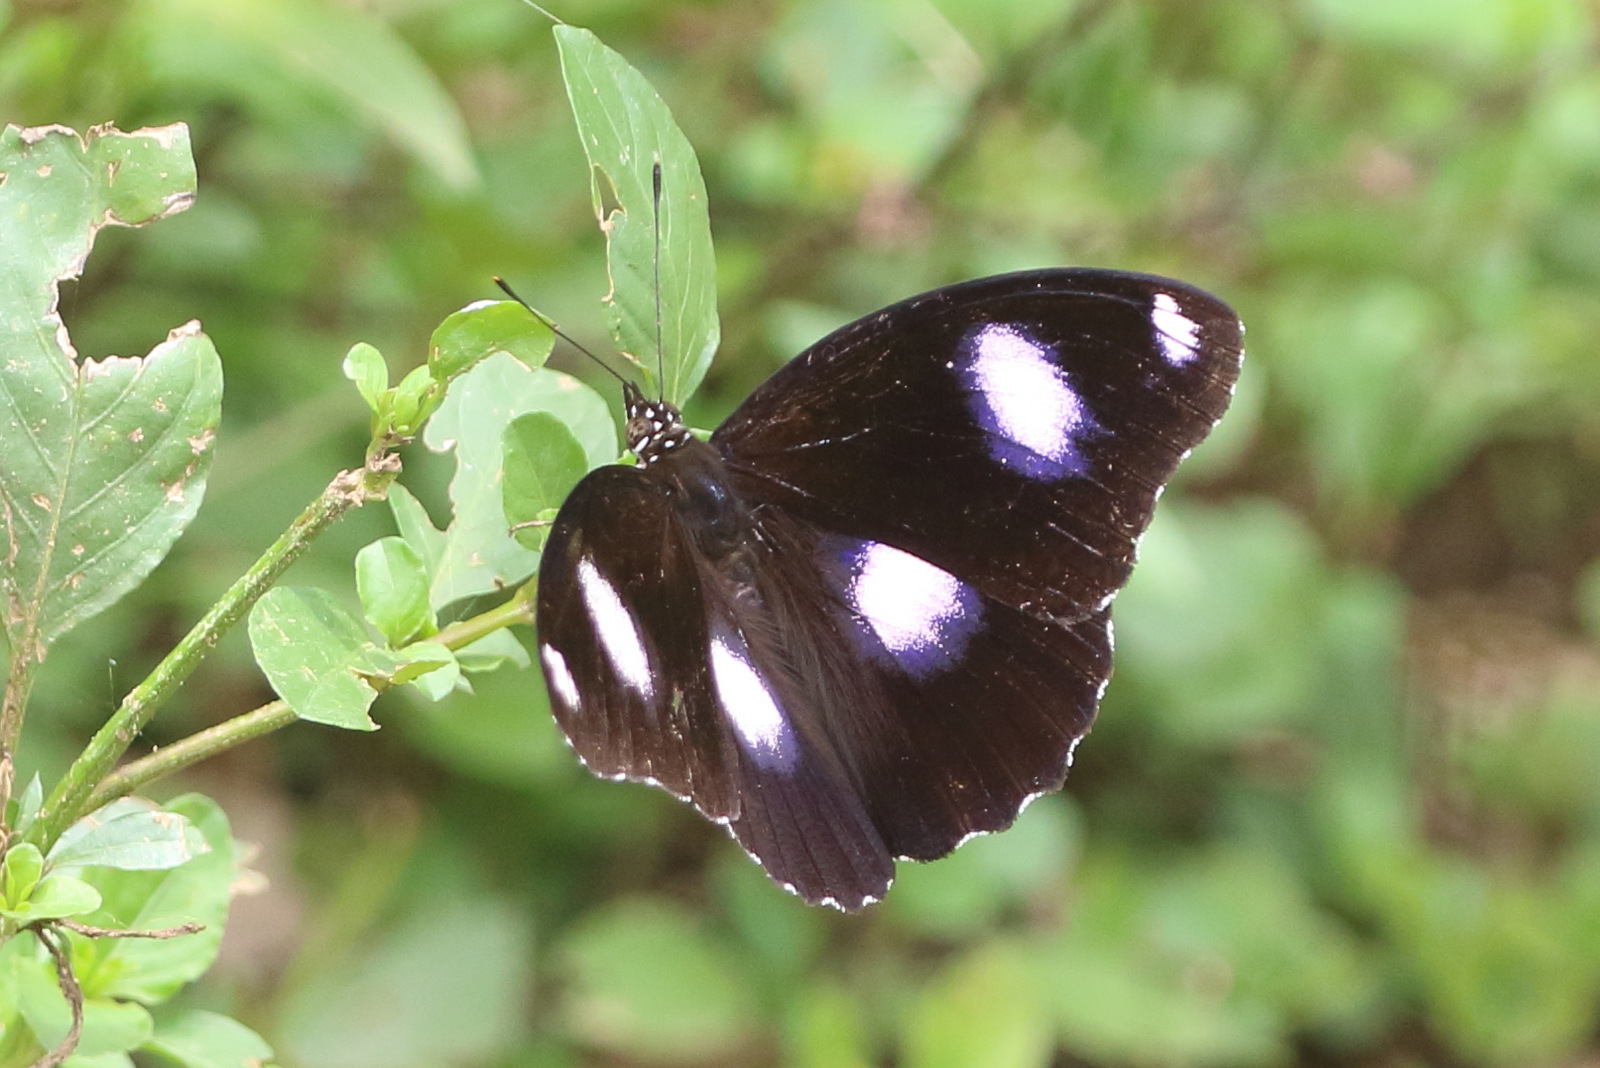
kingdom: Animalia
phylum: Arthropoda
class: Insecta
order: Lepidoptera
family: Nymphalidae
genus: Hypolimnas
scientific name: Hypolimnas bolina
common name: Great eggfly
